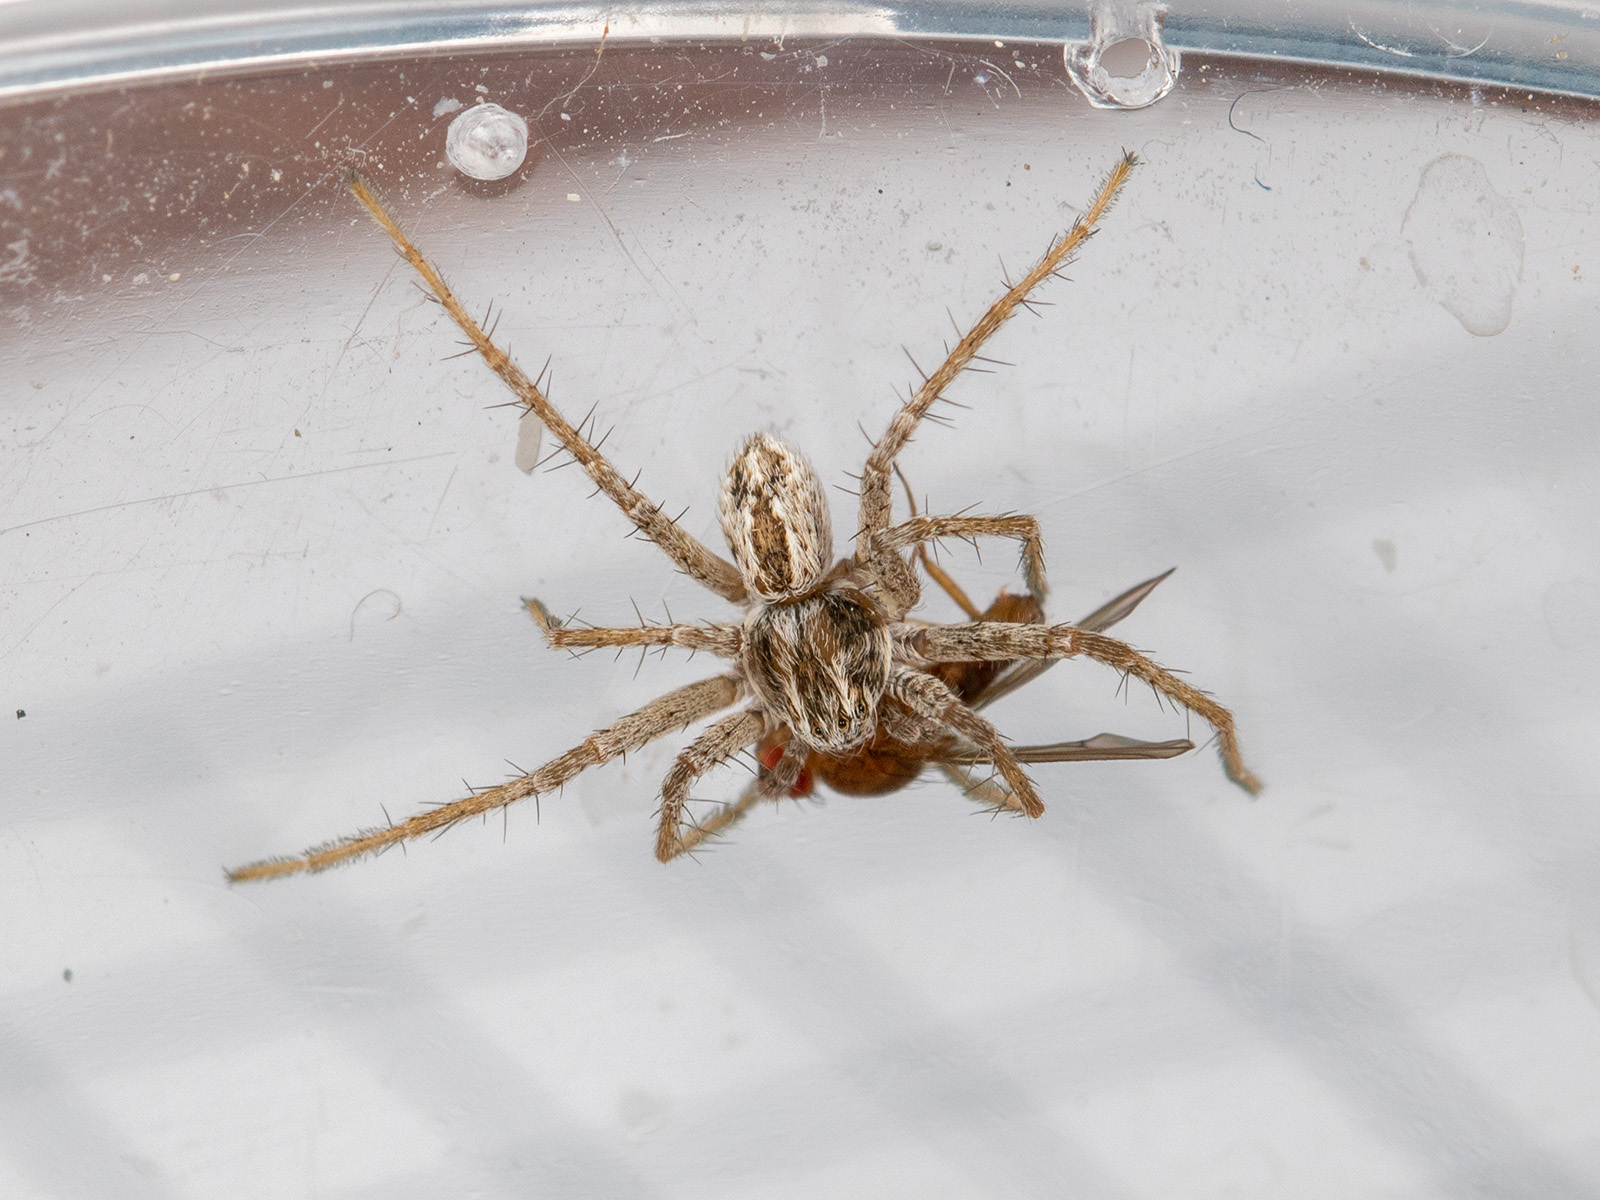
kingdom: Animalia
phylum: Arthropoda
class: Arachnida
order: Araneae
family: Philodromidae
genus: Thanatus
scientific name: Thanatus mikhailovi
